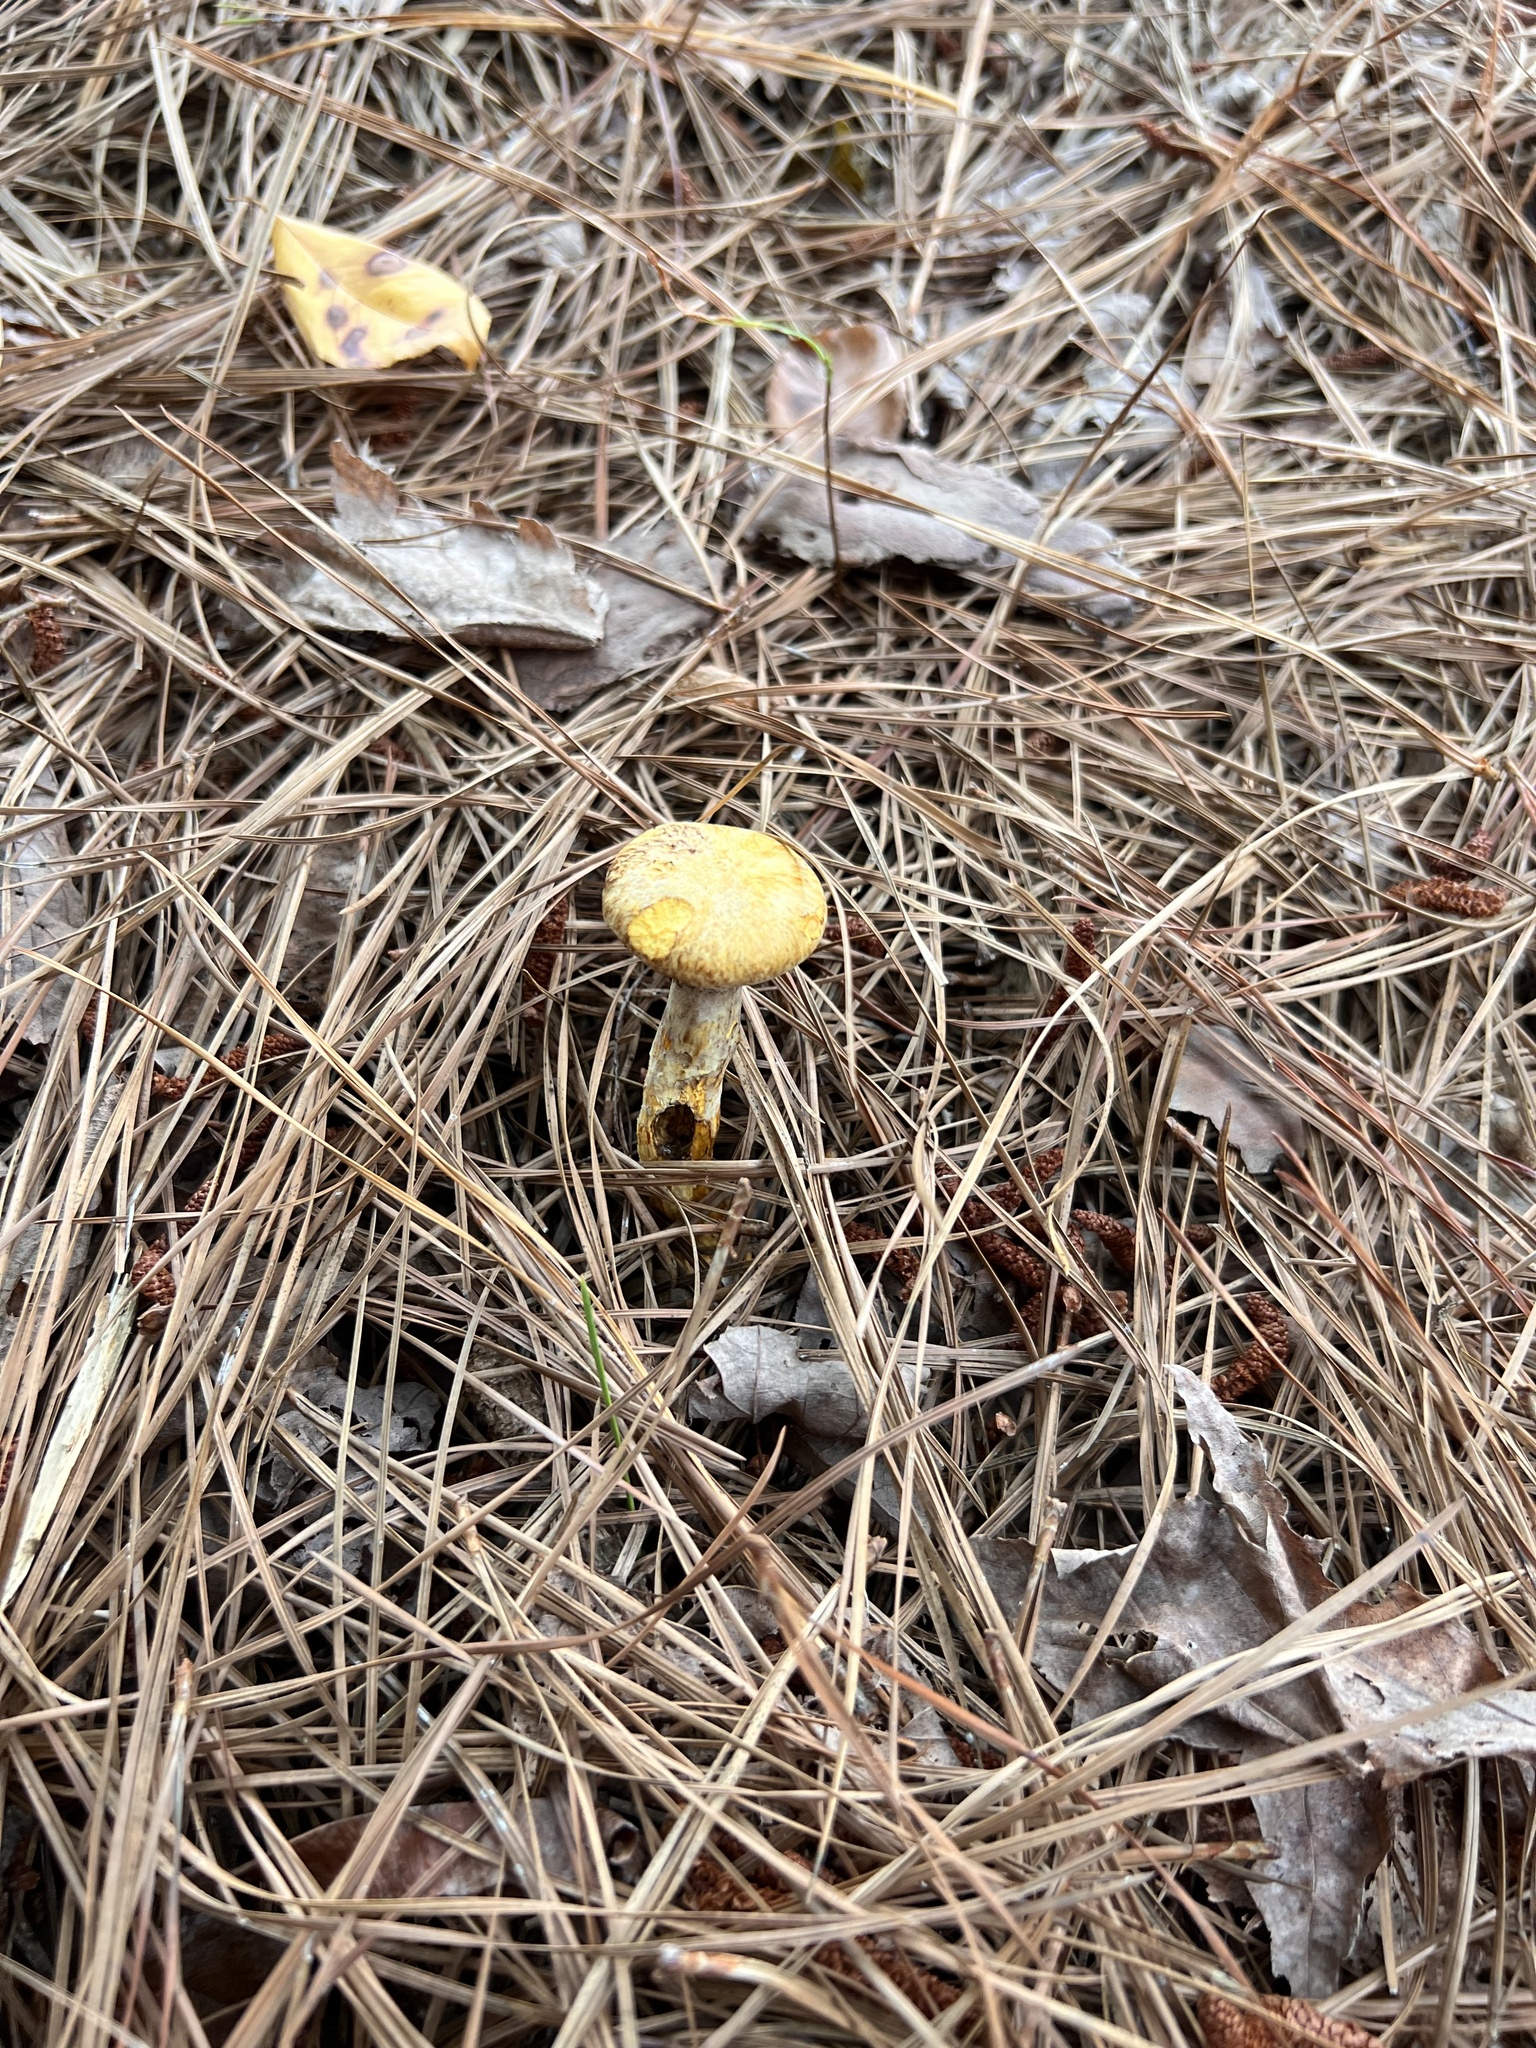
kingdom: Fungi
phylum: Basidiomycota
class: Agaricomycetes
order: Boletales
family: Suillaceae
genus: Suillus
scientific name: Suillus decipiens
